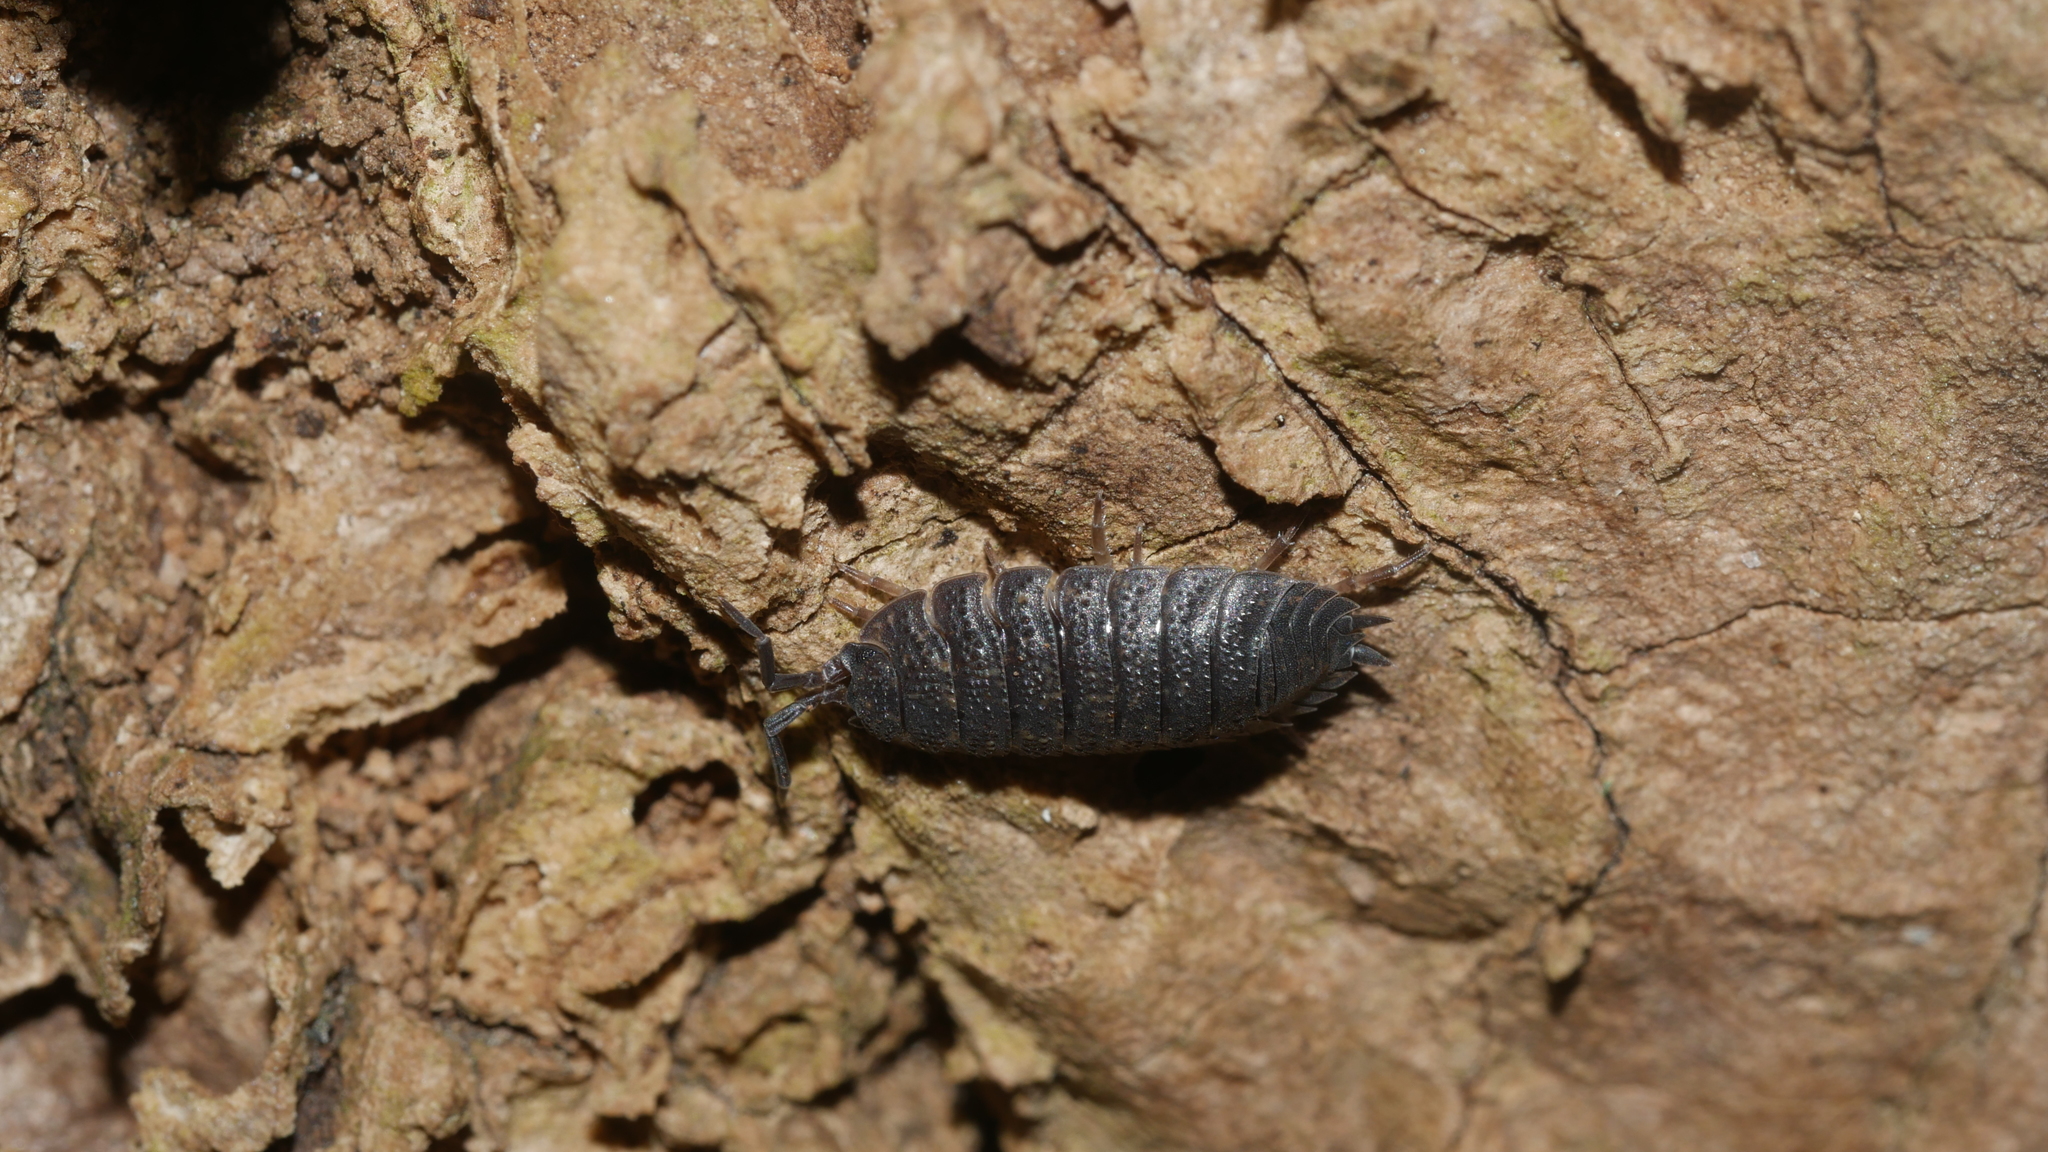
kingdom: Animalia
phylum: Arthropoda
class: Malacostraca
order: Isopoda
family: Porcellionidae
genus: Porcellio
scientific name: Porcellio scaber
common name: Common rough woodlouse
